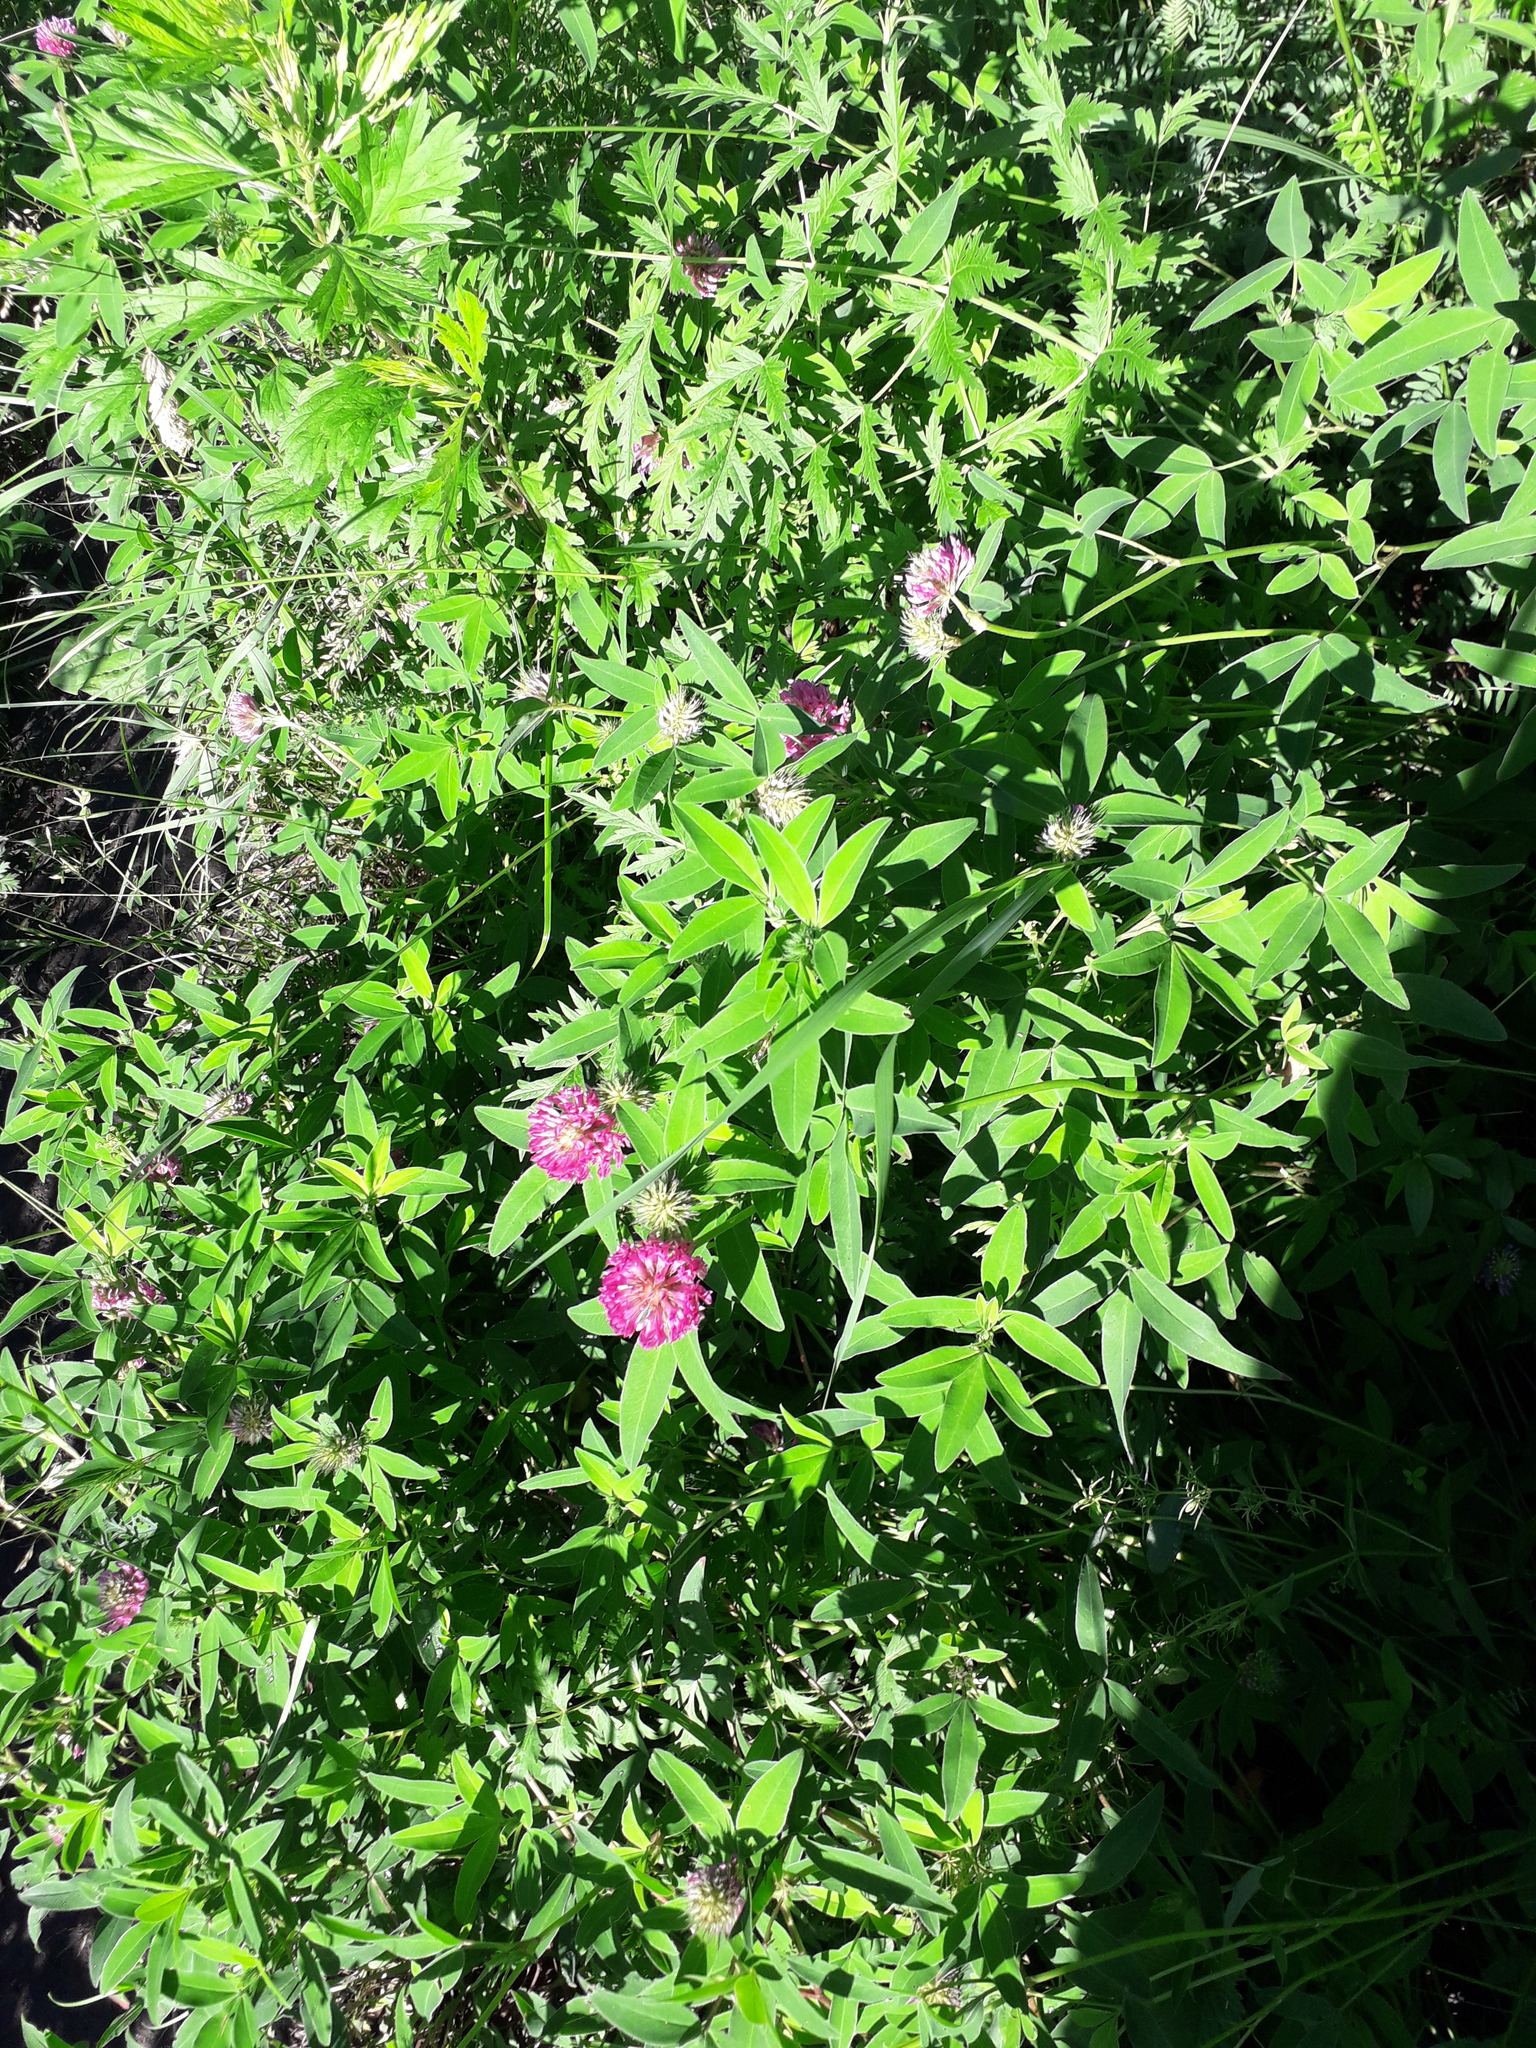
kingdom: Plantae
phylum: Tracheophyta
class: Magnoliopsida
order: Fabales
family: Fabaceae
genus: Trifolium
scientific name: Trifolium medium
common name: Zigzag clover
